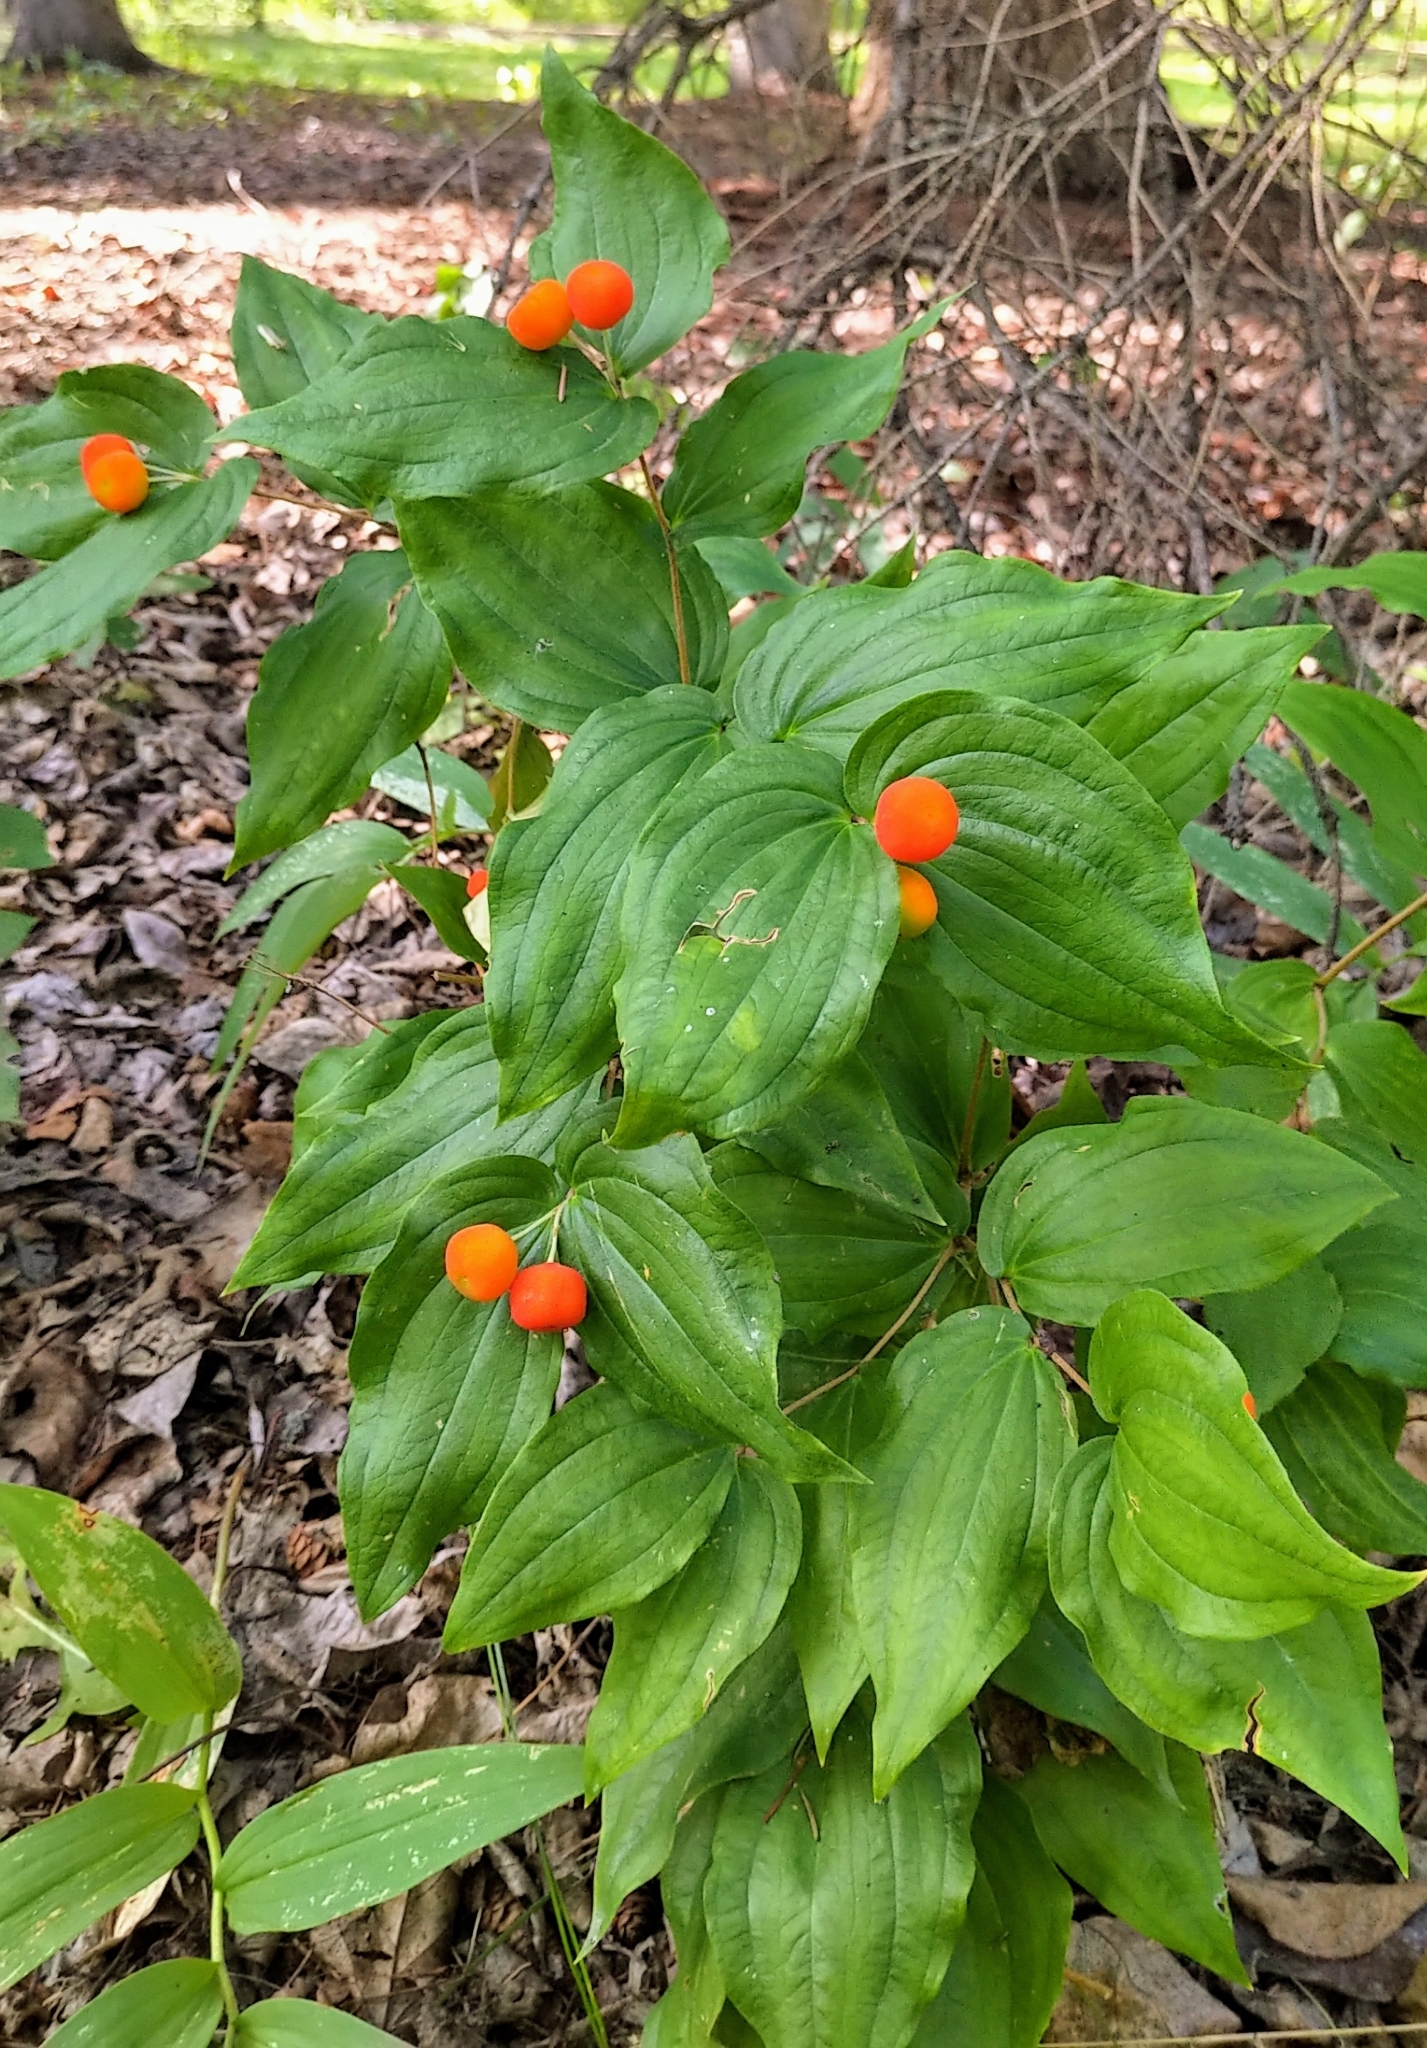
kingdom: Plantae
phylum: Tracheophyta
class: Liliopsida
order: Liliales
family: Liliaceae
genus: Prosartes
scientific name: Prosartes trachycarpa
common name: Rough-fruit fairy-bells
